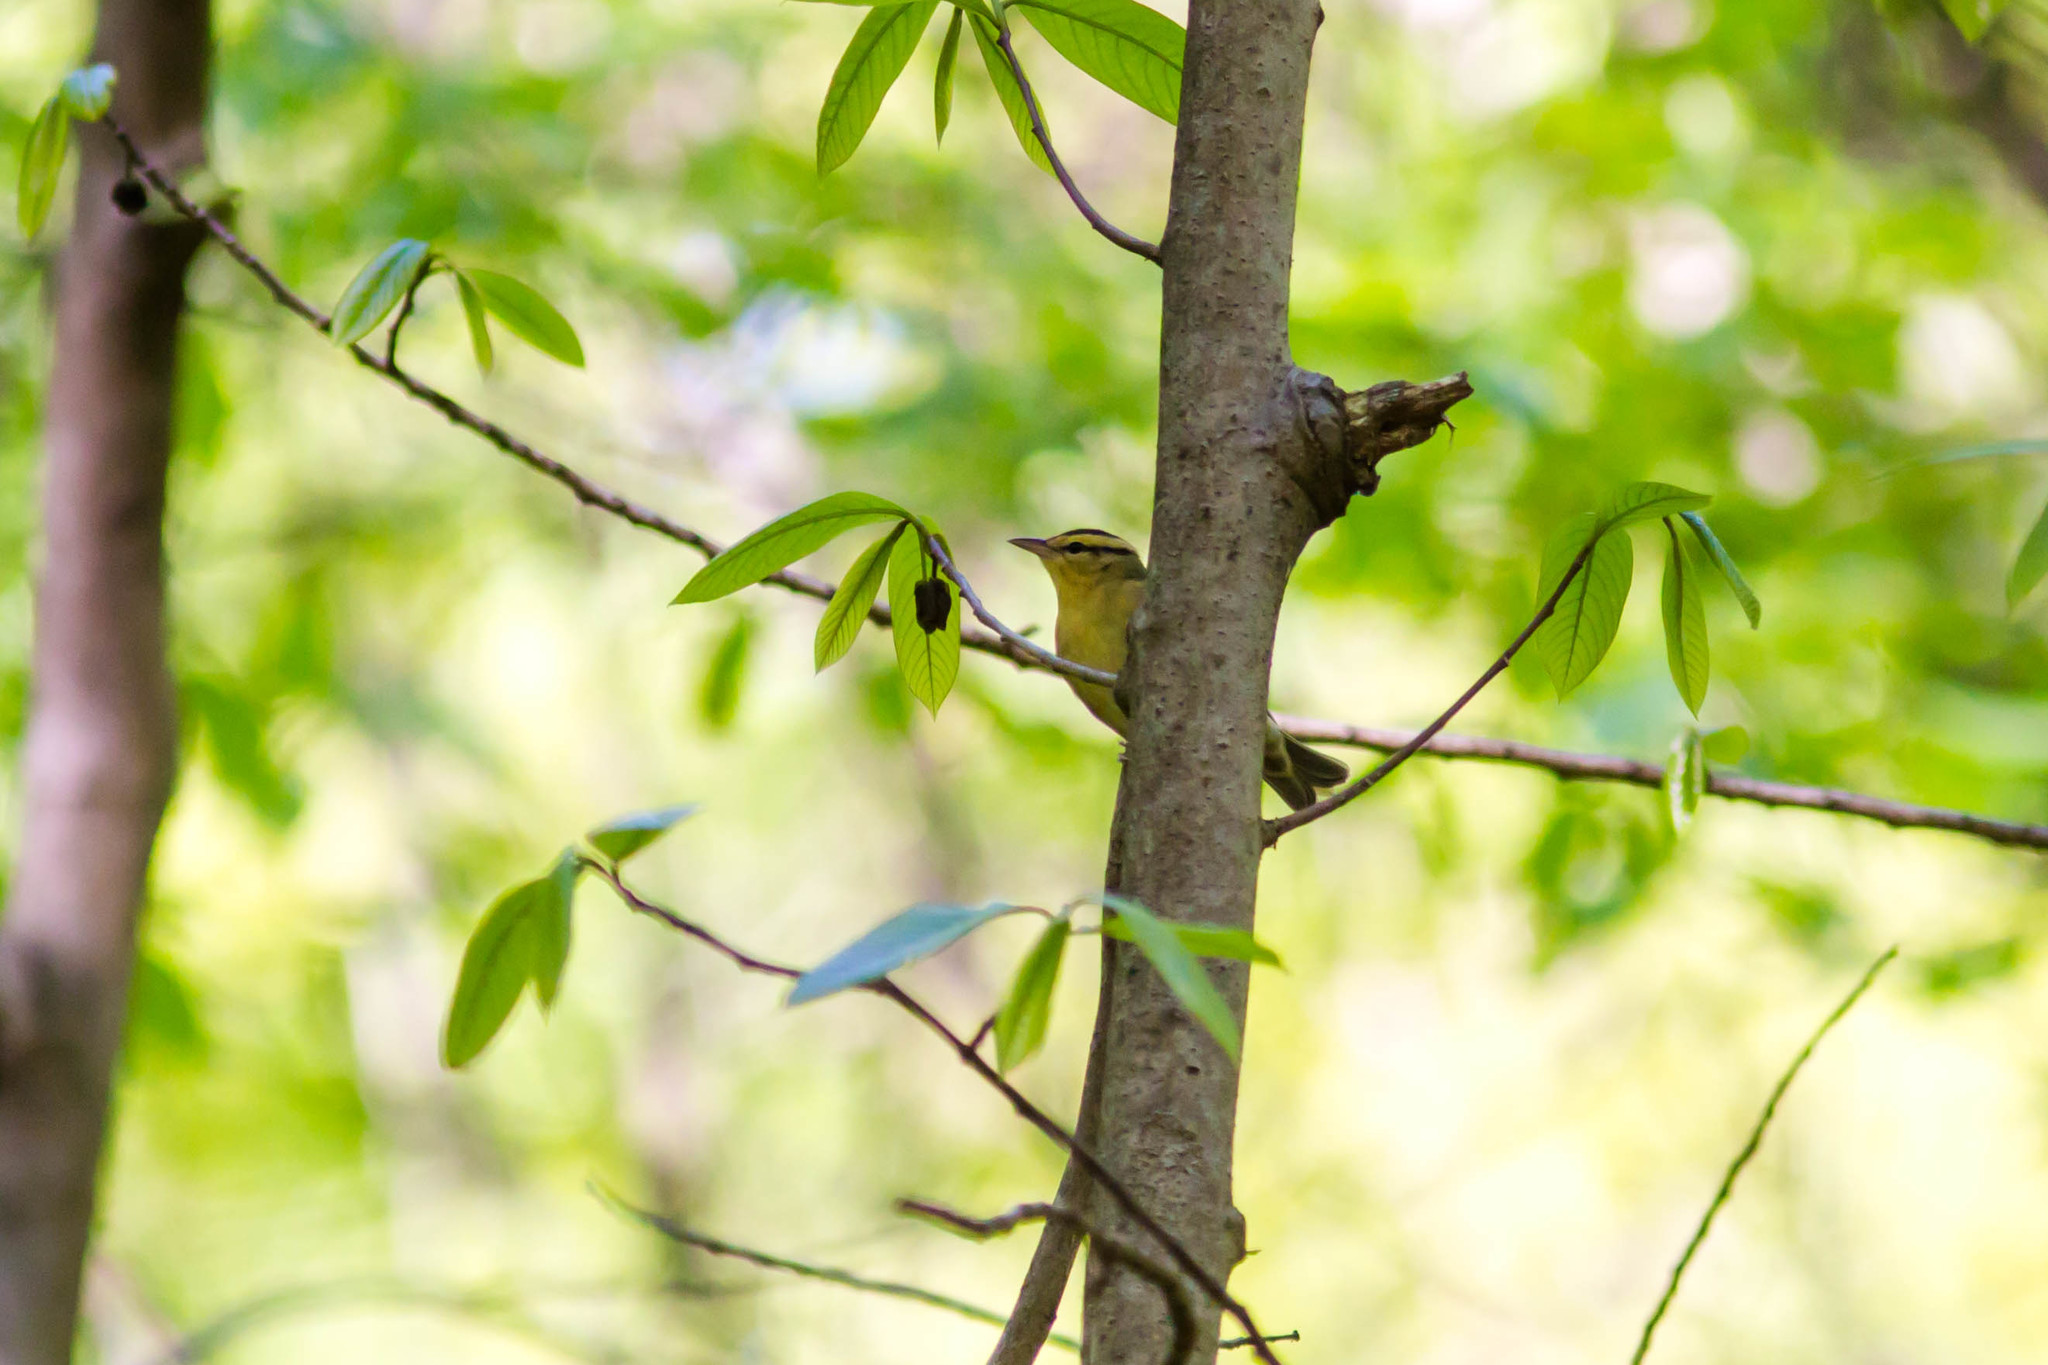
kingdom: Animalia
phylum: Chordata
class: Aves
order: Passeriformes
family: Parulidae
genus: Helmitheros
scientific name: Helmitheros vermivorum
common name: Worm-eating warbler
